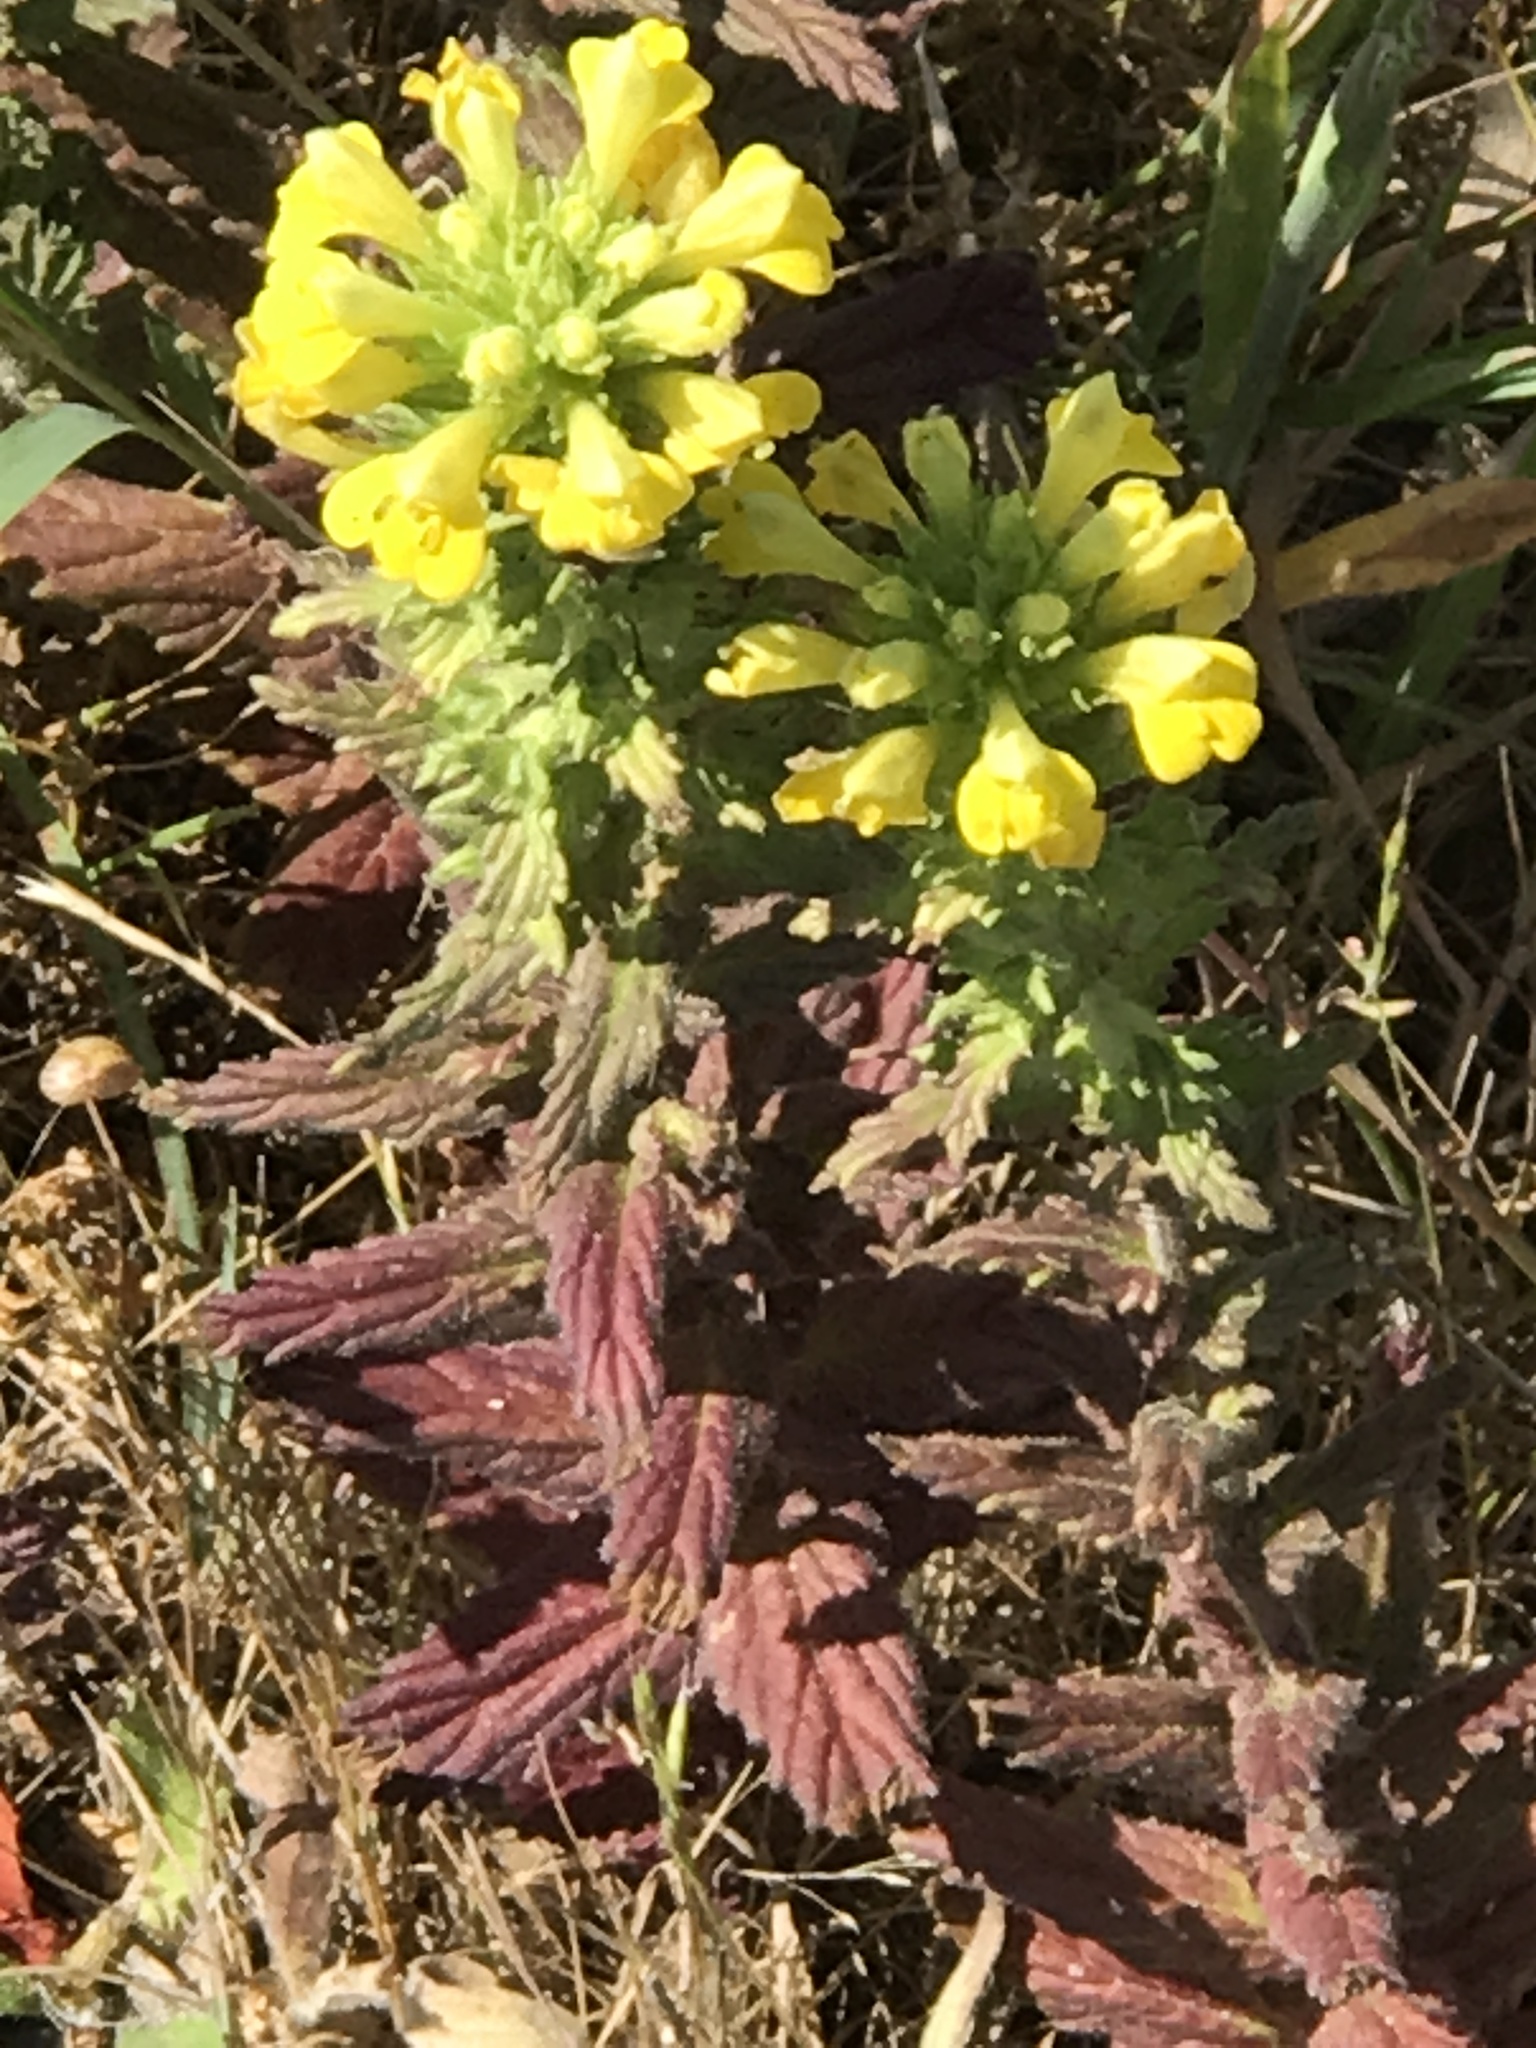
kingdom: Plantae
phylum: Tracheophyta
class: Magnoliopsida
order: Lamiales
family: Orobanchaceae
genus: Bellardia
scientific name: Bellardia viscosa
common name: Sticky parentucellia
